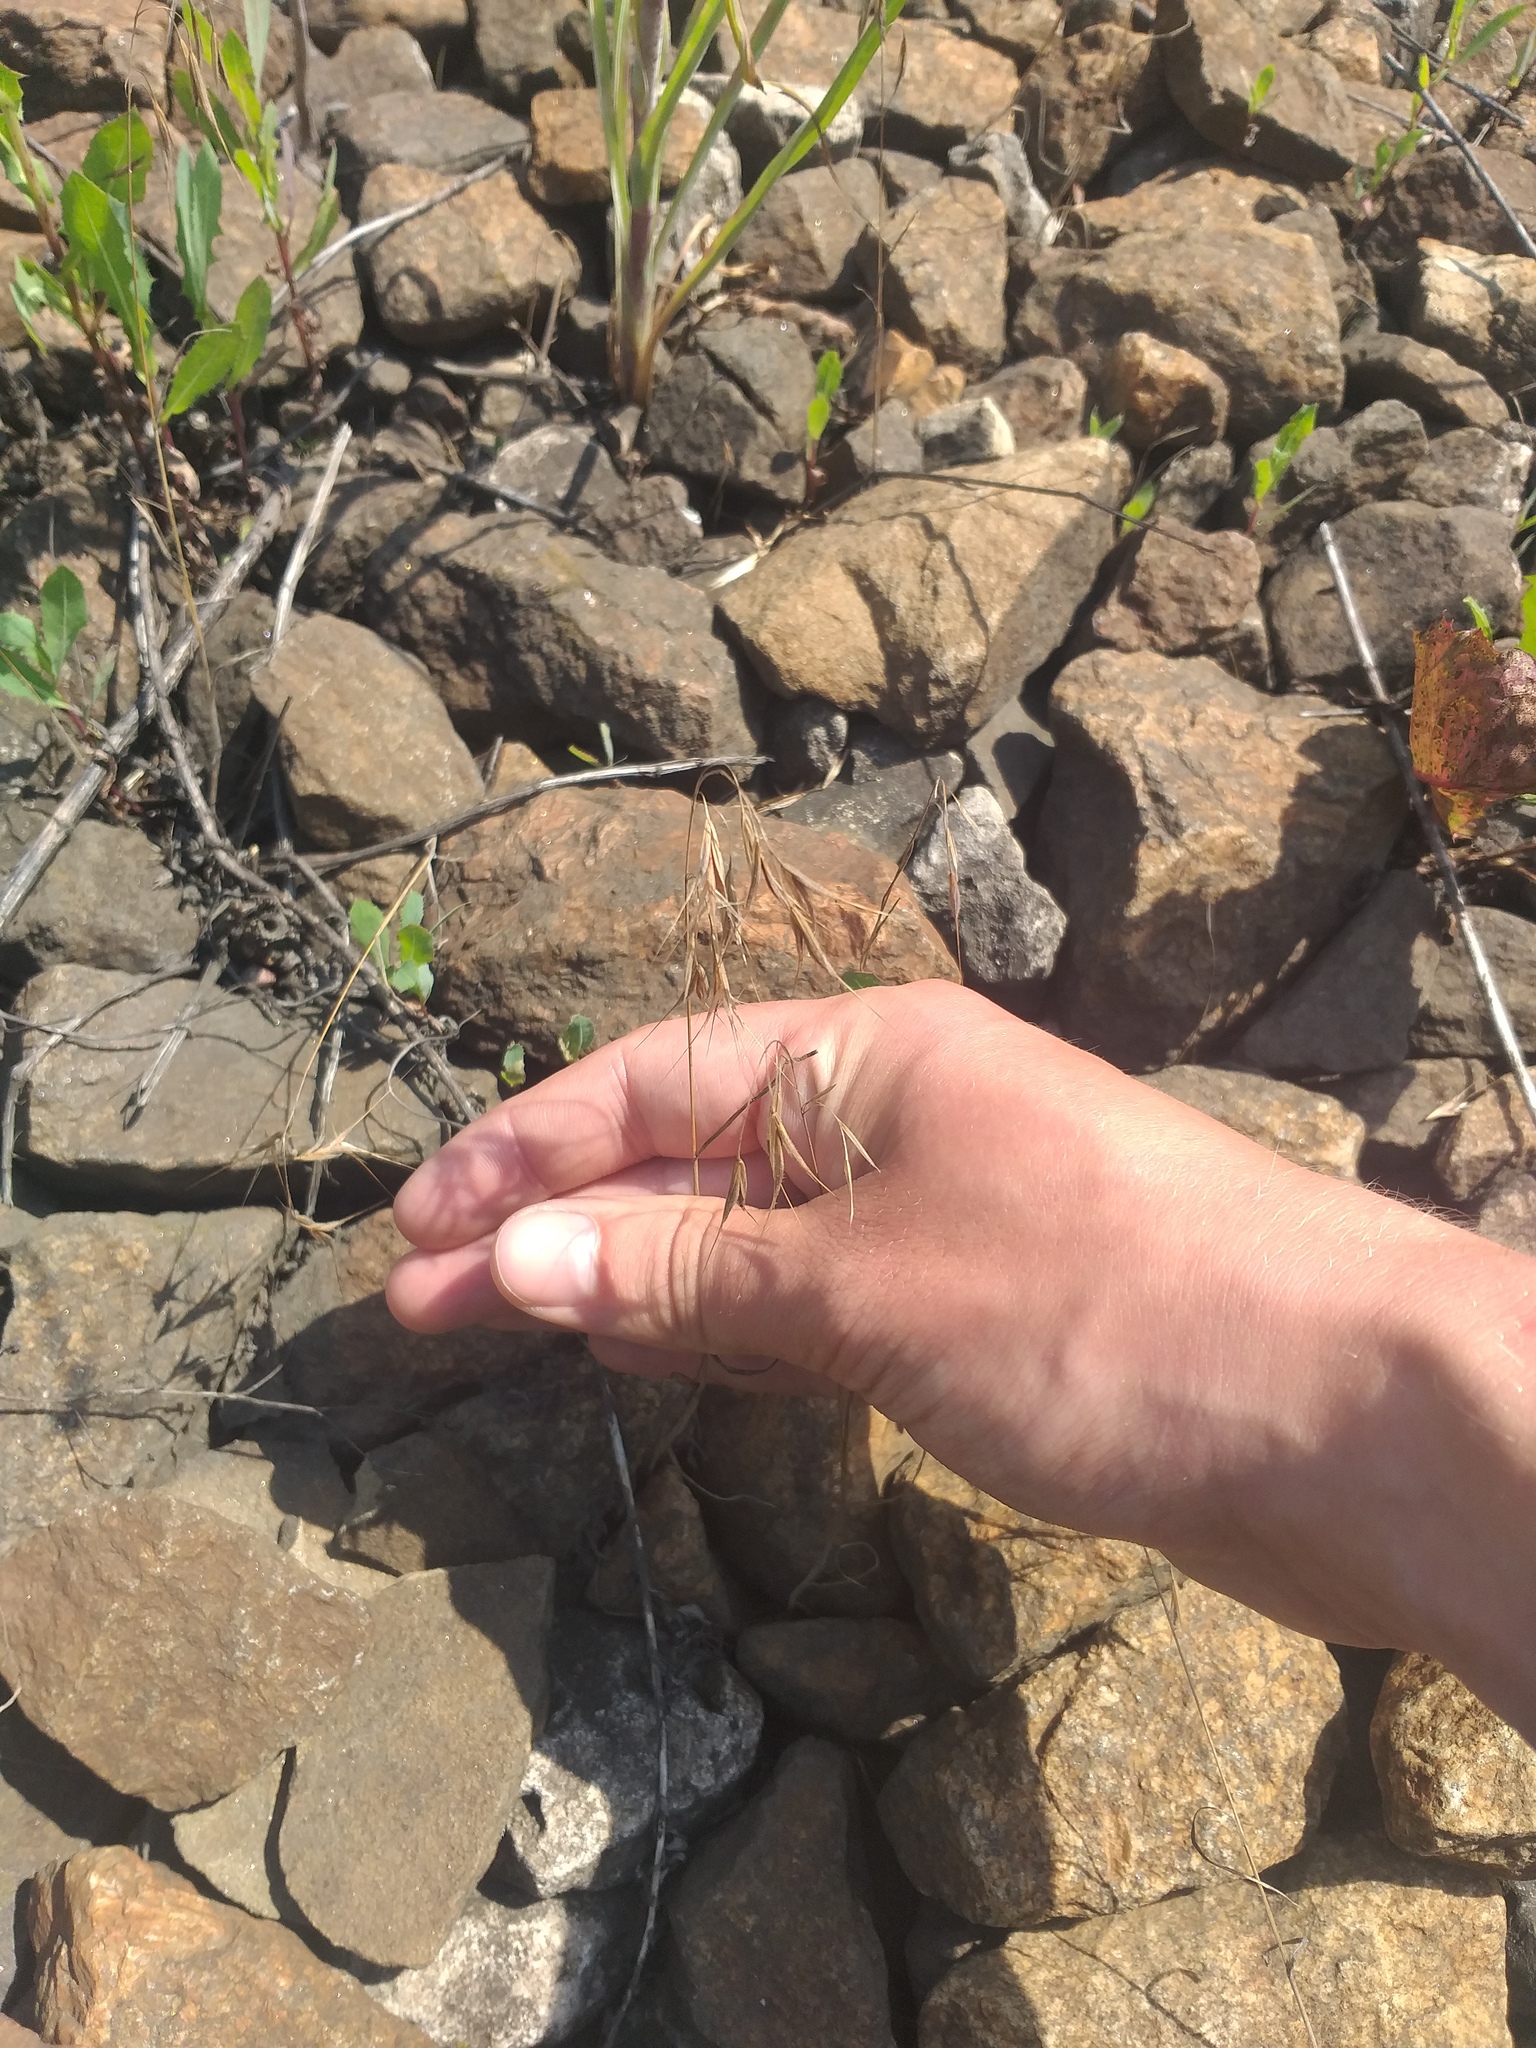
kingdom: Plantae
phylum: Tracheophyta
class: Liliopsida
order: Poales
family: Poaceae
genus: Bromus
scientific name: Bromus tectorum
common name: Cheatgrass
